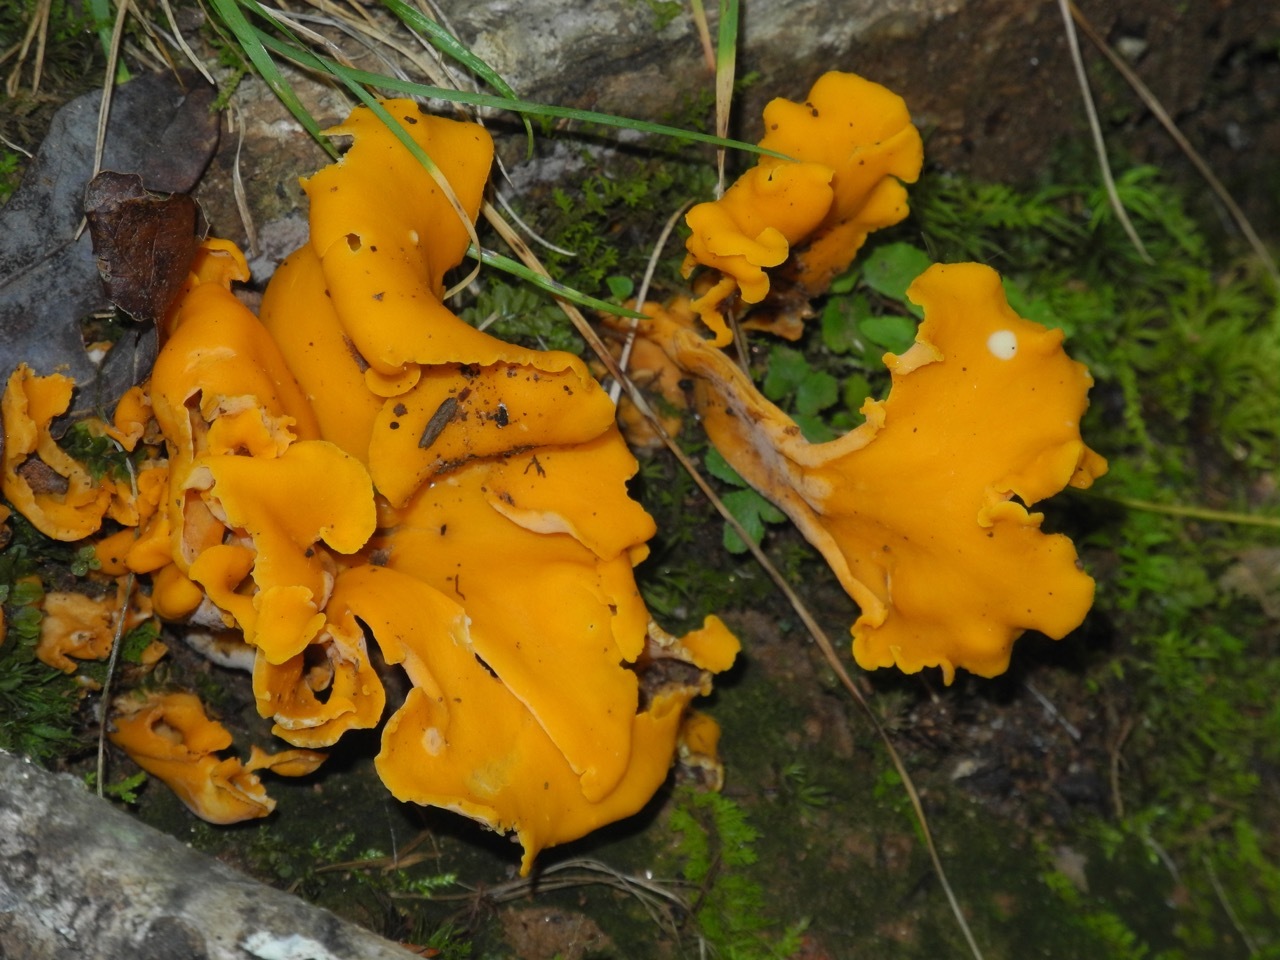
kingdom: Fungi
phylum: Basidiomycota
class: Agaricomycetes
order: Cantharellales
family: Hydnaceae
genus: Cantharellus
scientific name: Cantharellus odoratus
